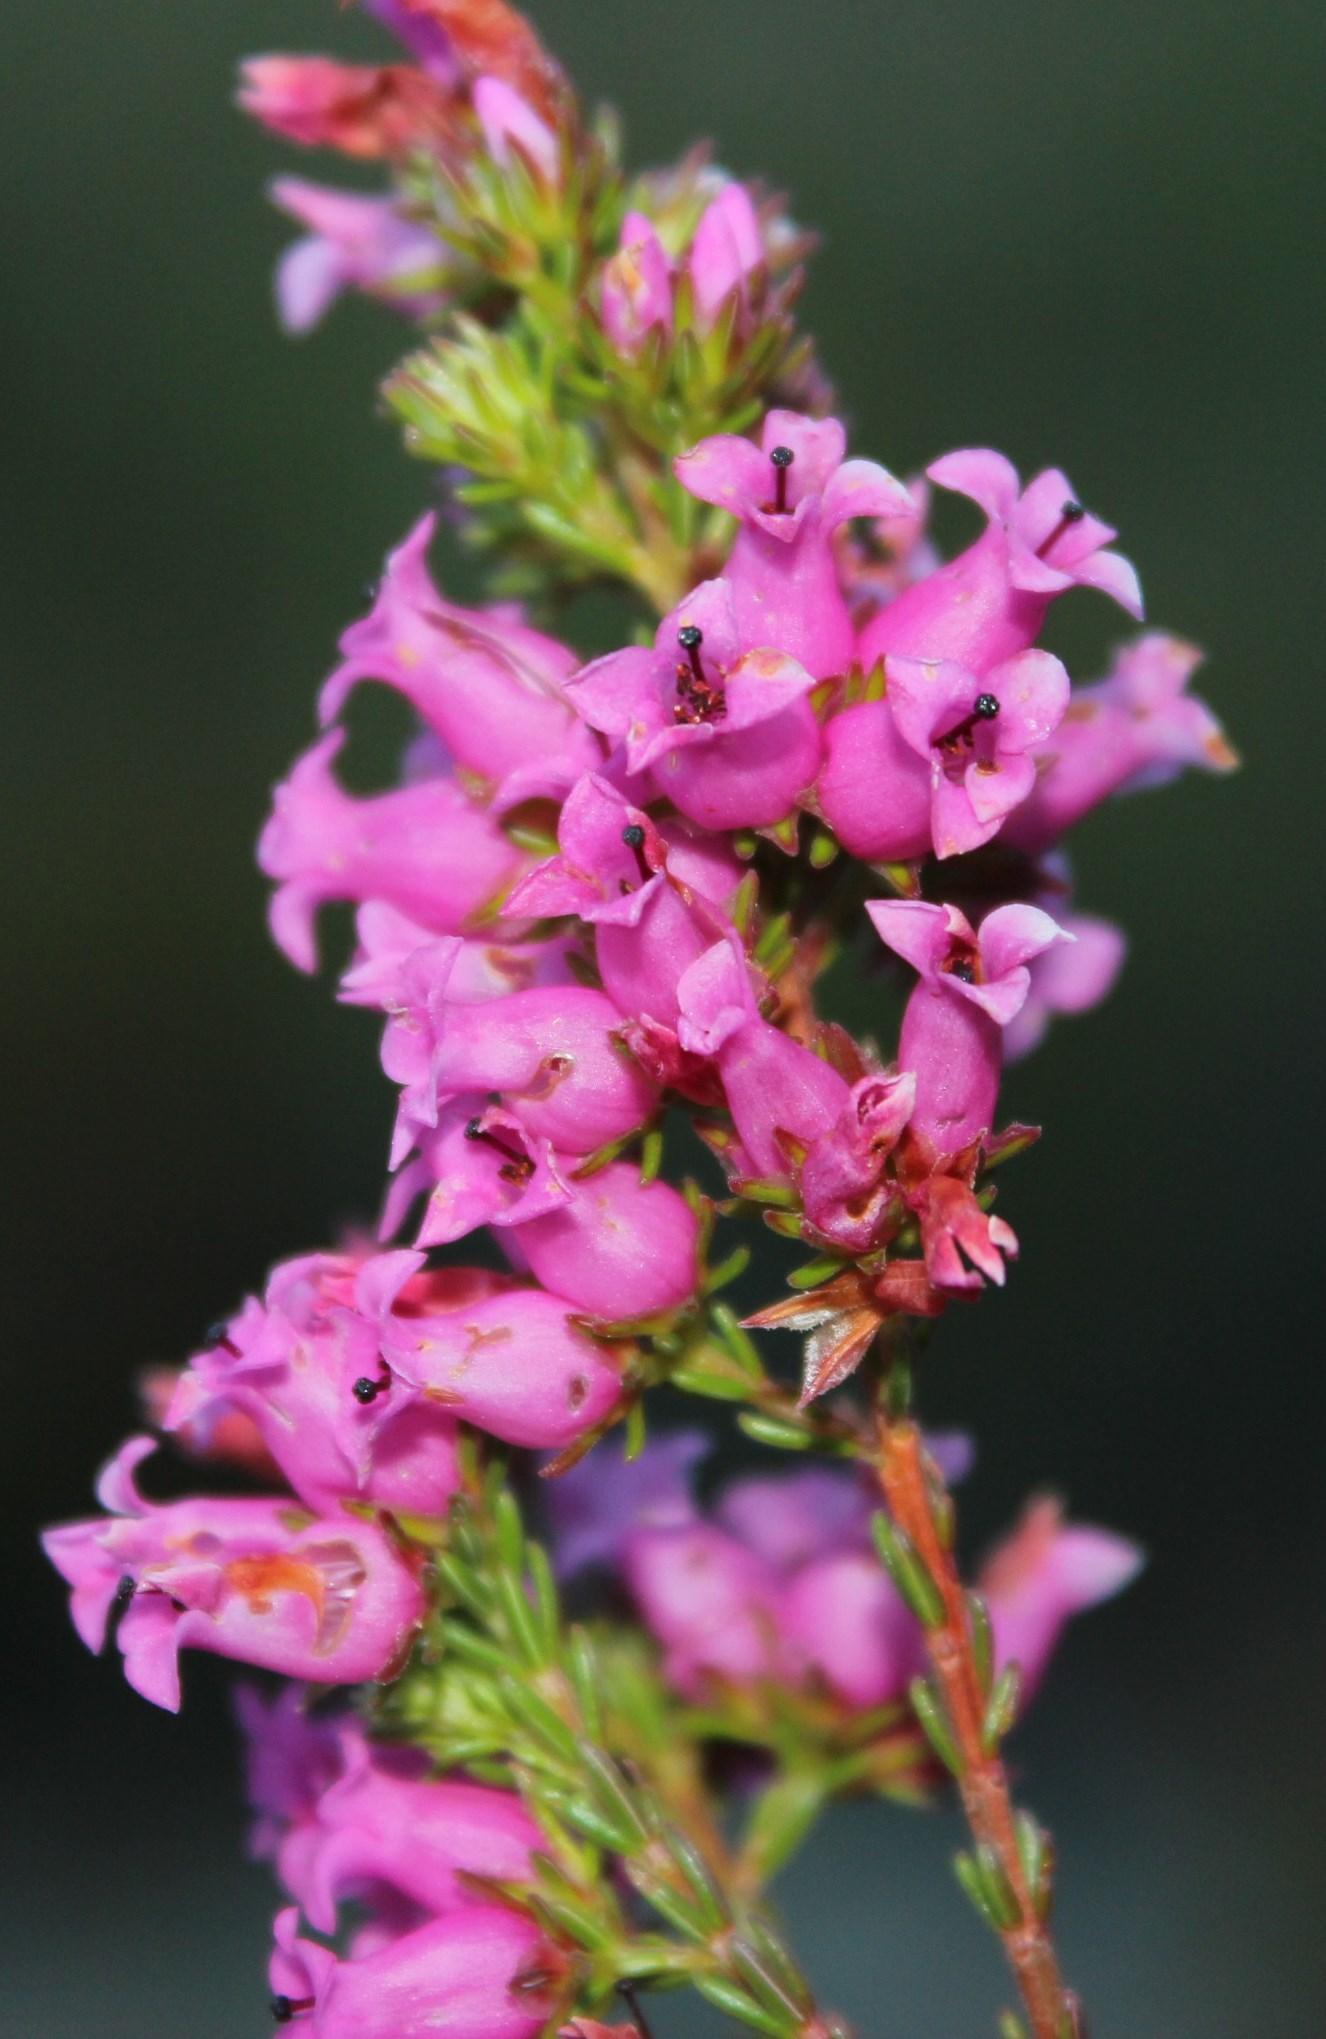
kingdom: Plantae
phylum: Tracheophyta
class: Magnoliopsida
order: Ericales
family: Ericaceae
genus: Erica
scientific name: Erica daphniflora
